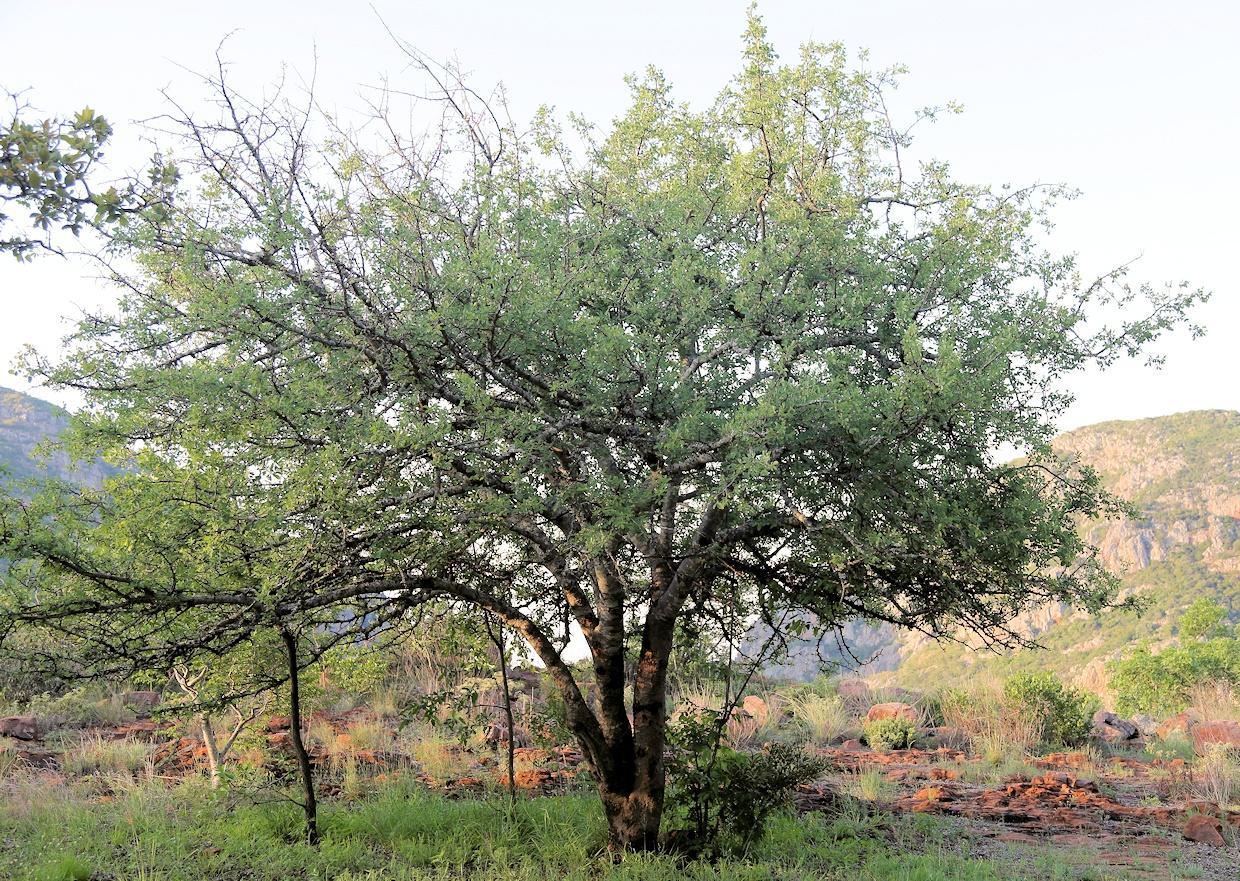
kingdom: Plantae
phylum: Tracheophyta
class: Magnoliopsida
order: Sapindales
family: Burseraceae
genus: Commiphora
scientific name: Commiphora mollis
